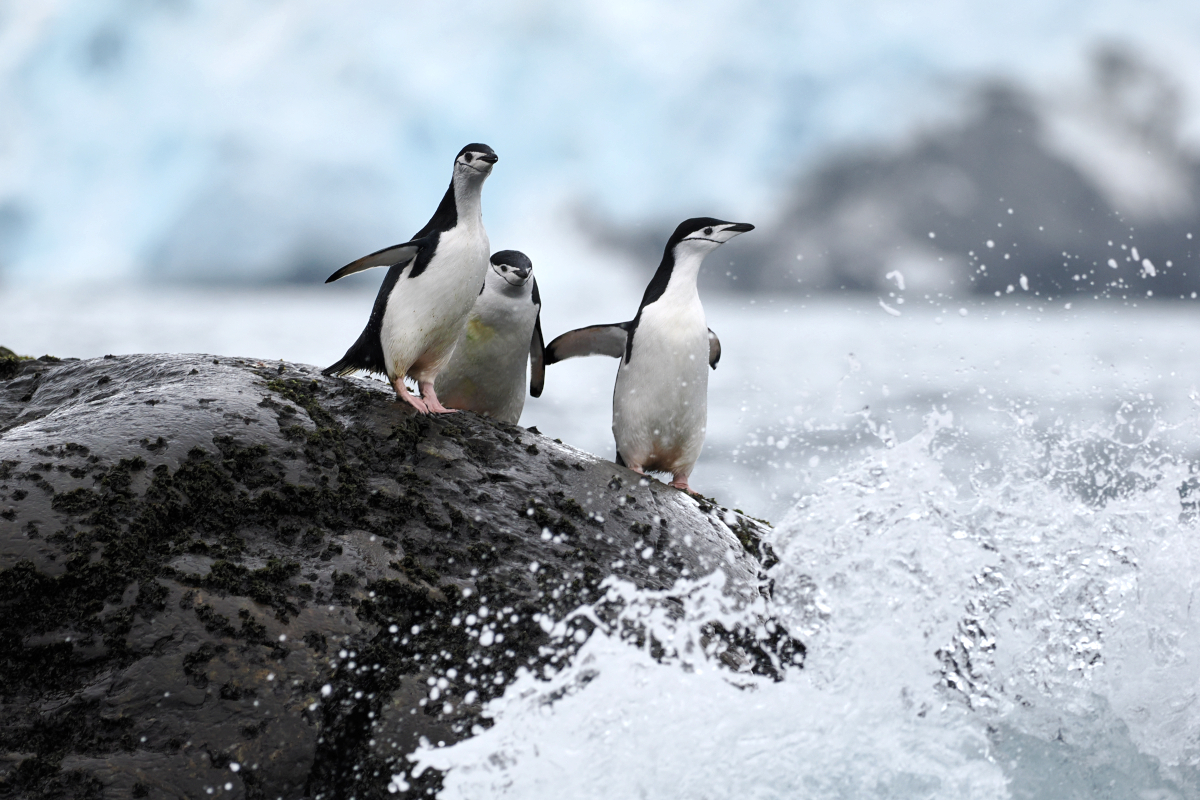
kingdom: Animalia
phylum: Chordata
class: Aves
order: Sphenisciformes
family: Spheniscidae
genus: Pygoscelis
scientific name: Pygoscelis antarcticus
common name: Chinstrap penguin
